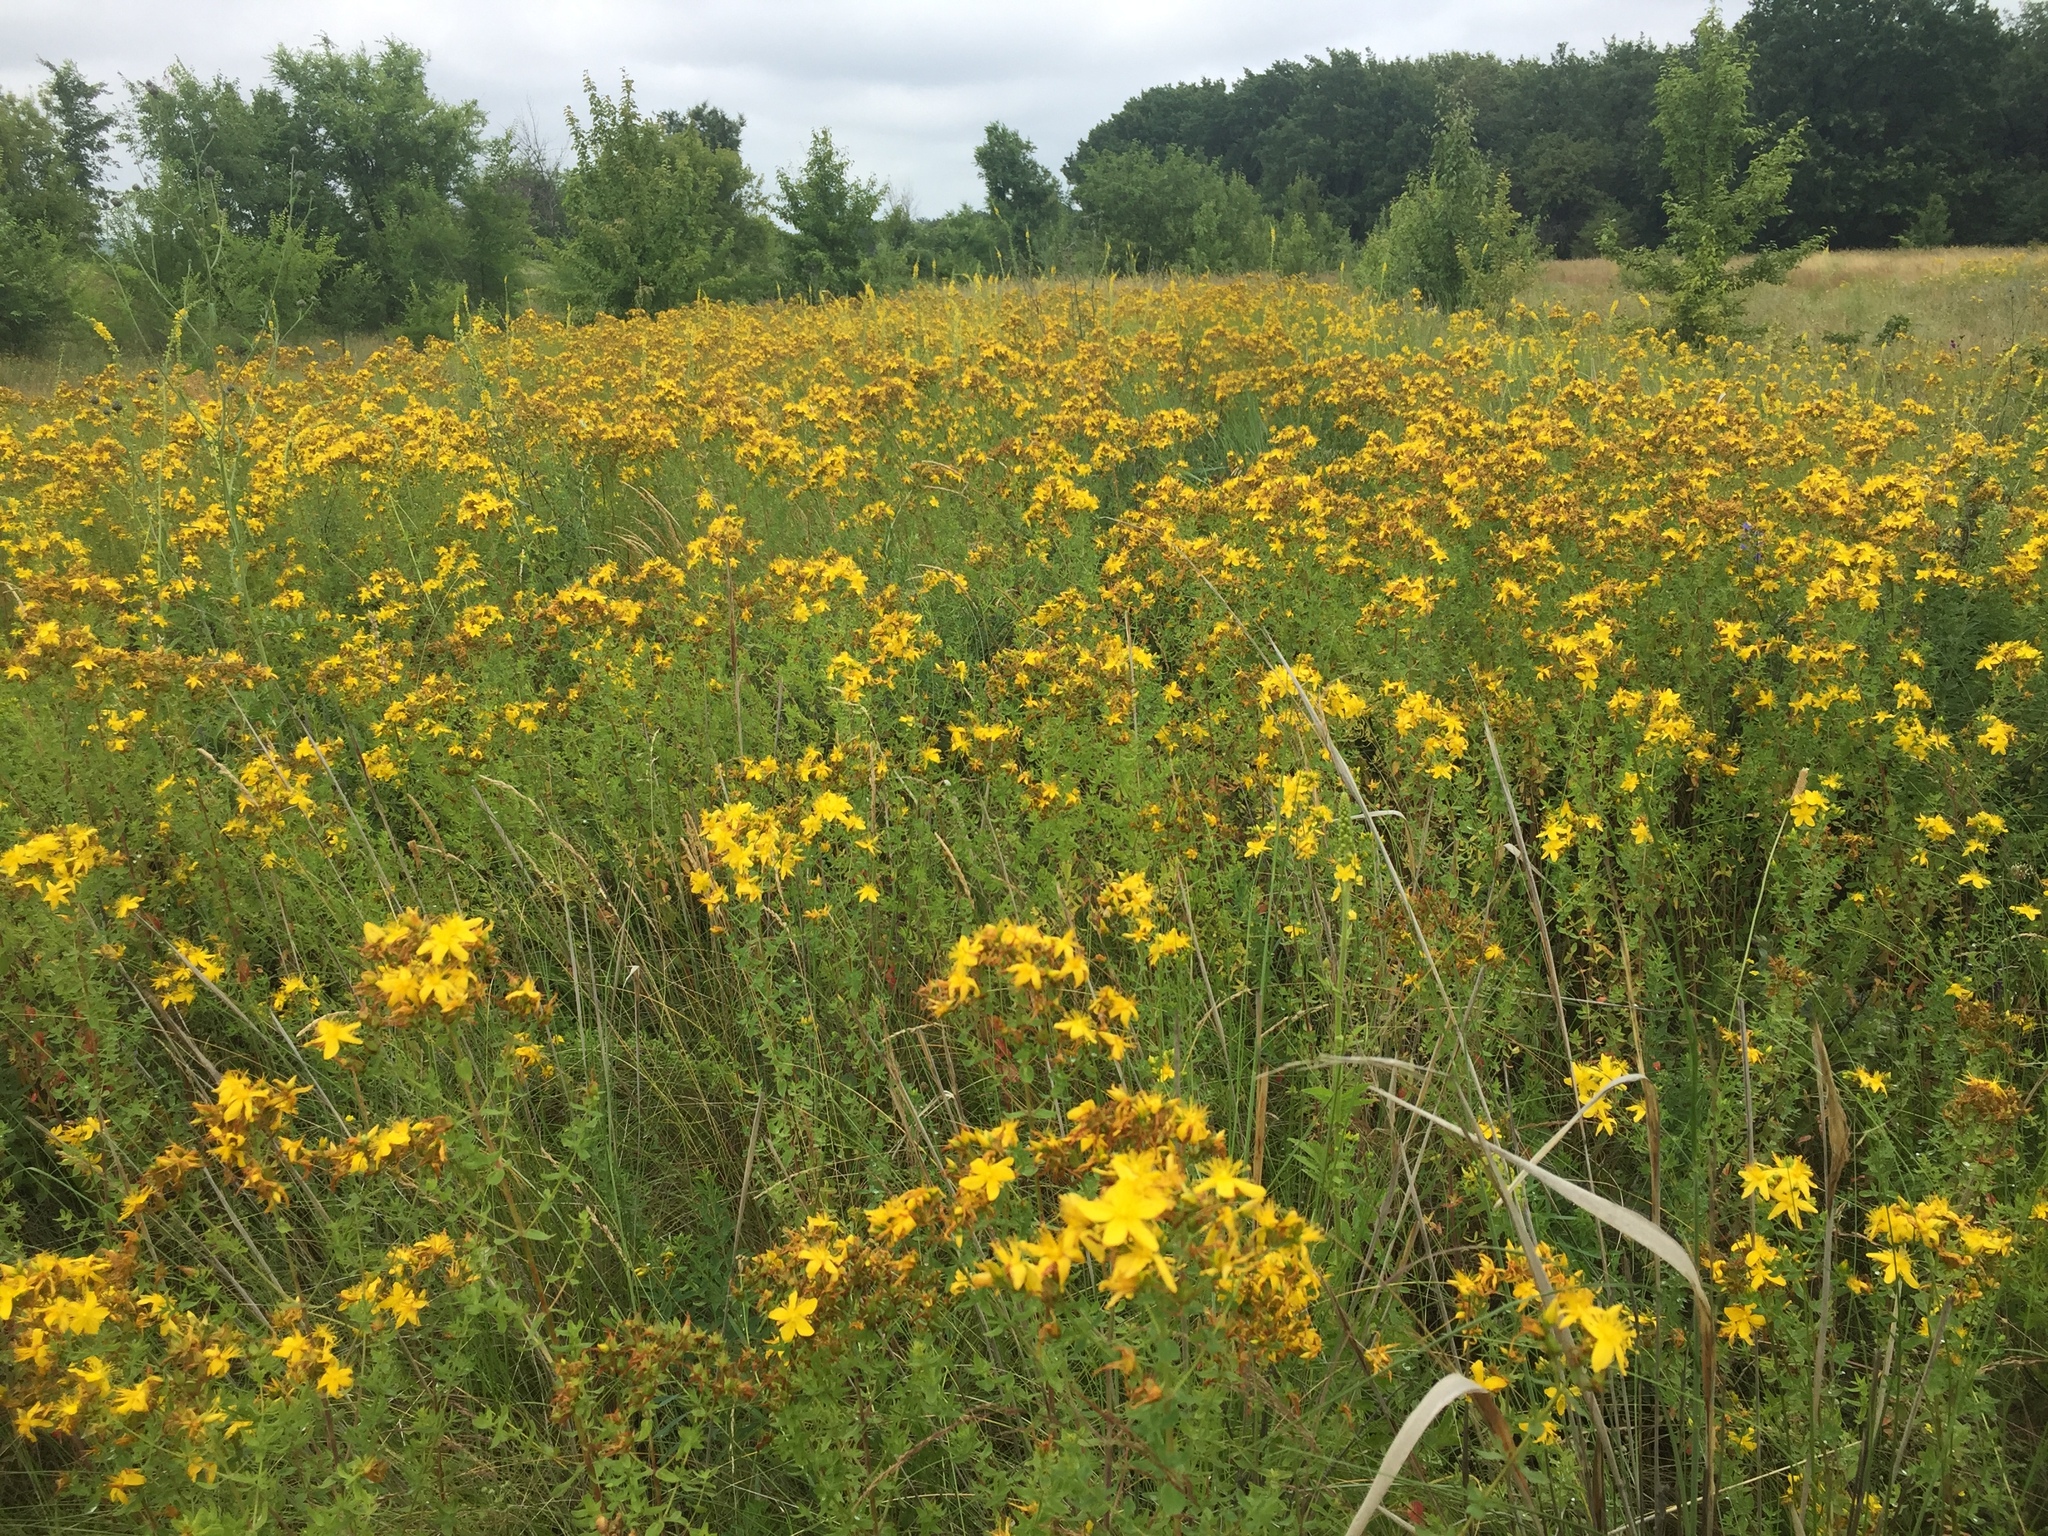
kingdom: Plantae
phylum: Tracheophyta
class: Magnoliopsida
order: Malpighiales
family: Hypericaceae
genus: Hypericum
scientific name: Hypericum perforatum
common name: Common st. johnswort
